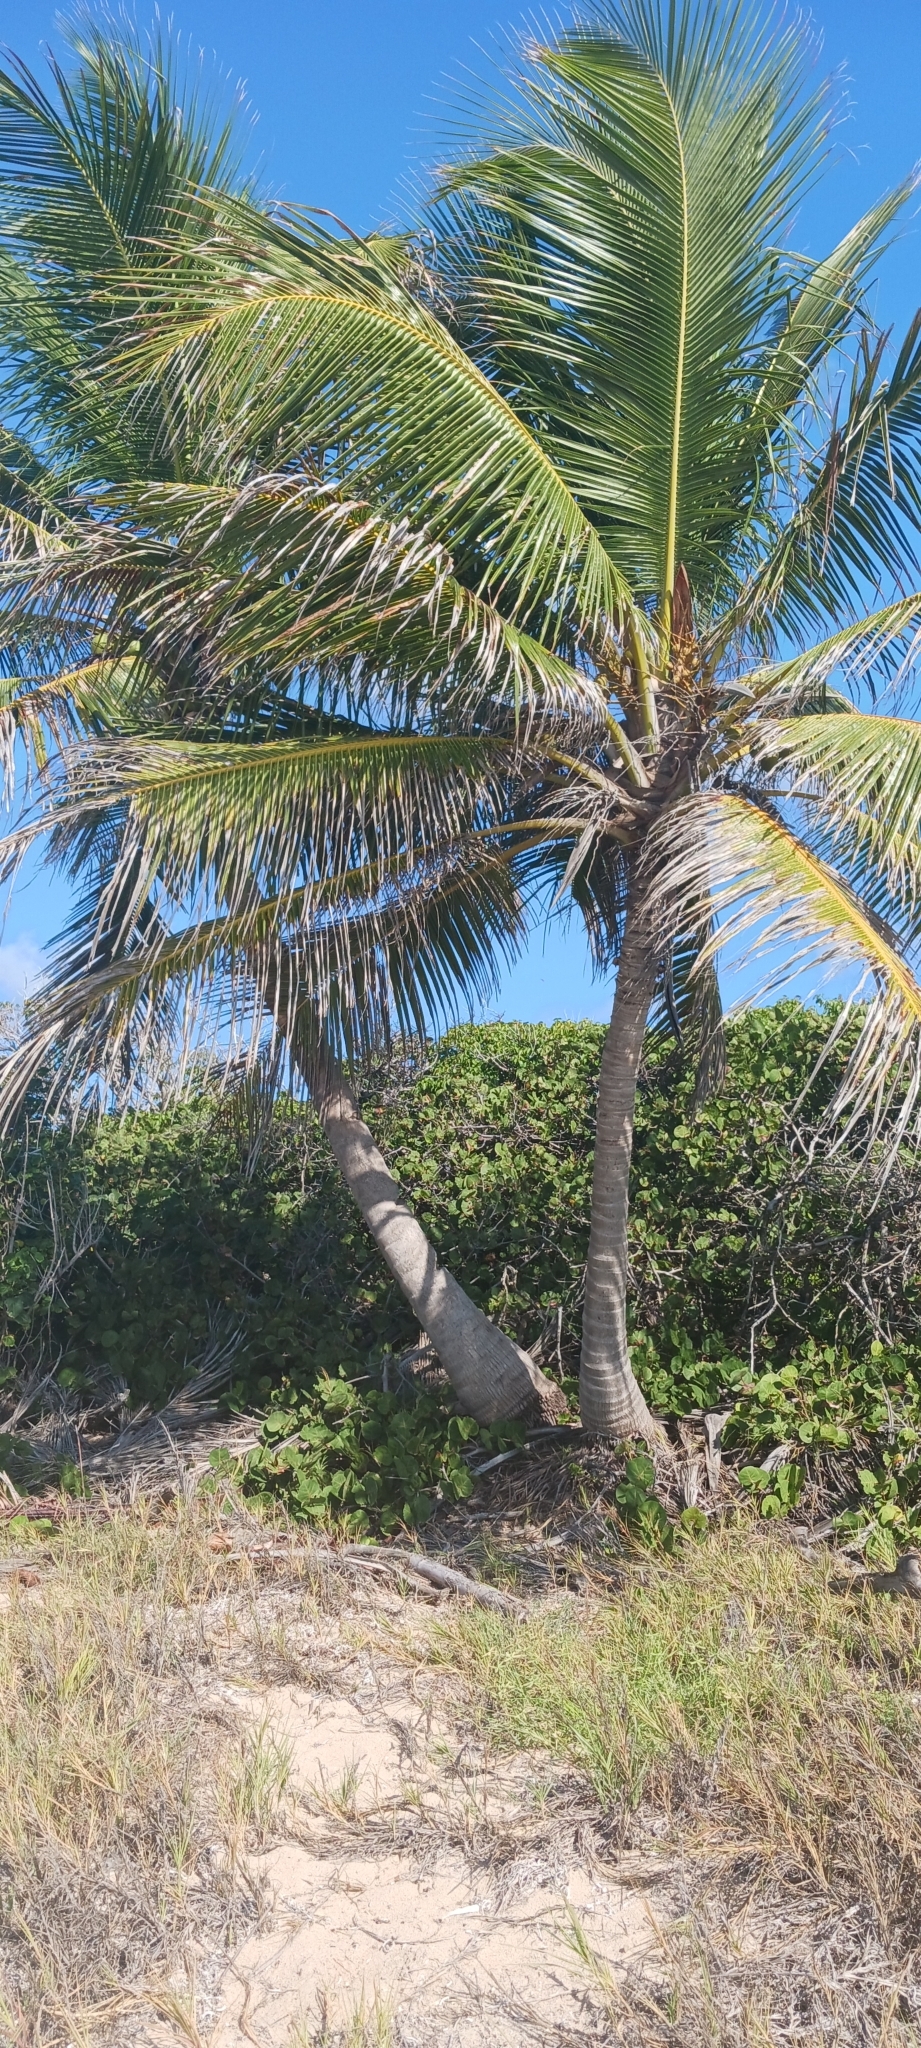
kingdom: Plantae
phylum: Tracheophyta
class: Liliopsida
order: Arecales
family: Arecaceae
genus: Cocos
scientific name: Cocos nucifera
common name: Coconut palm
